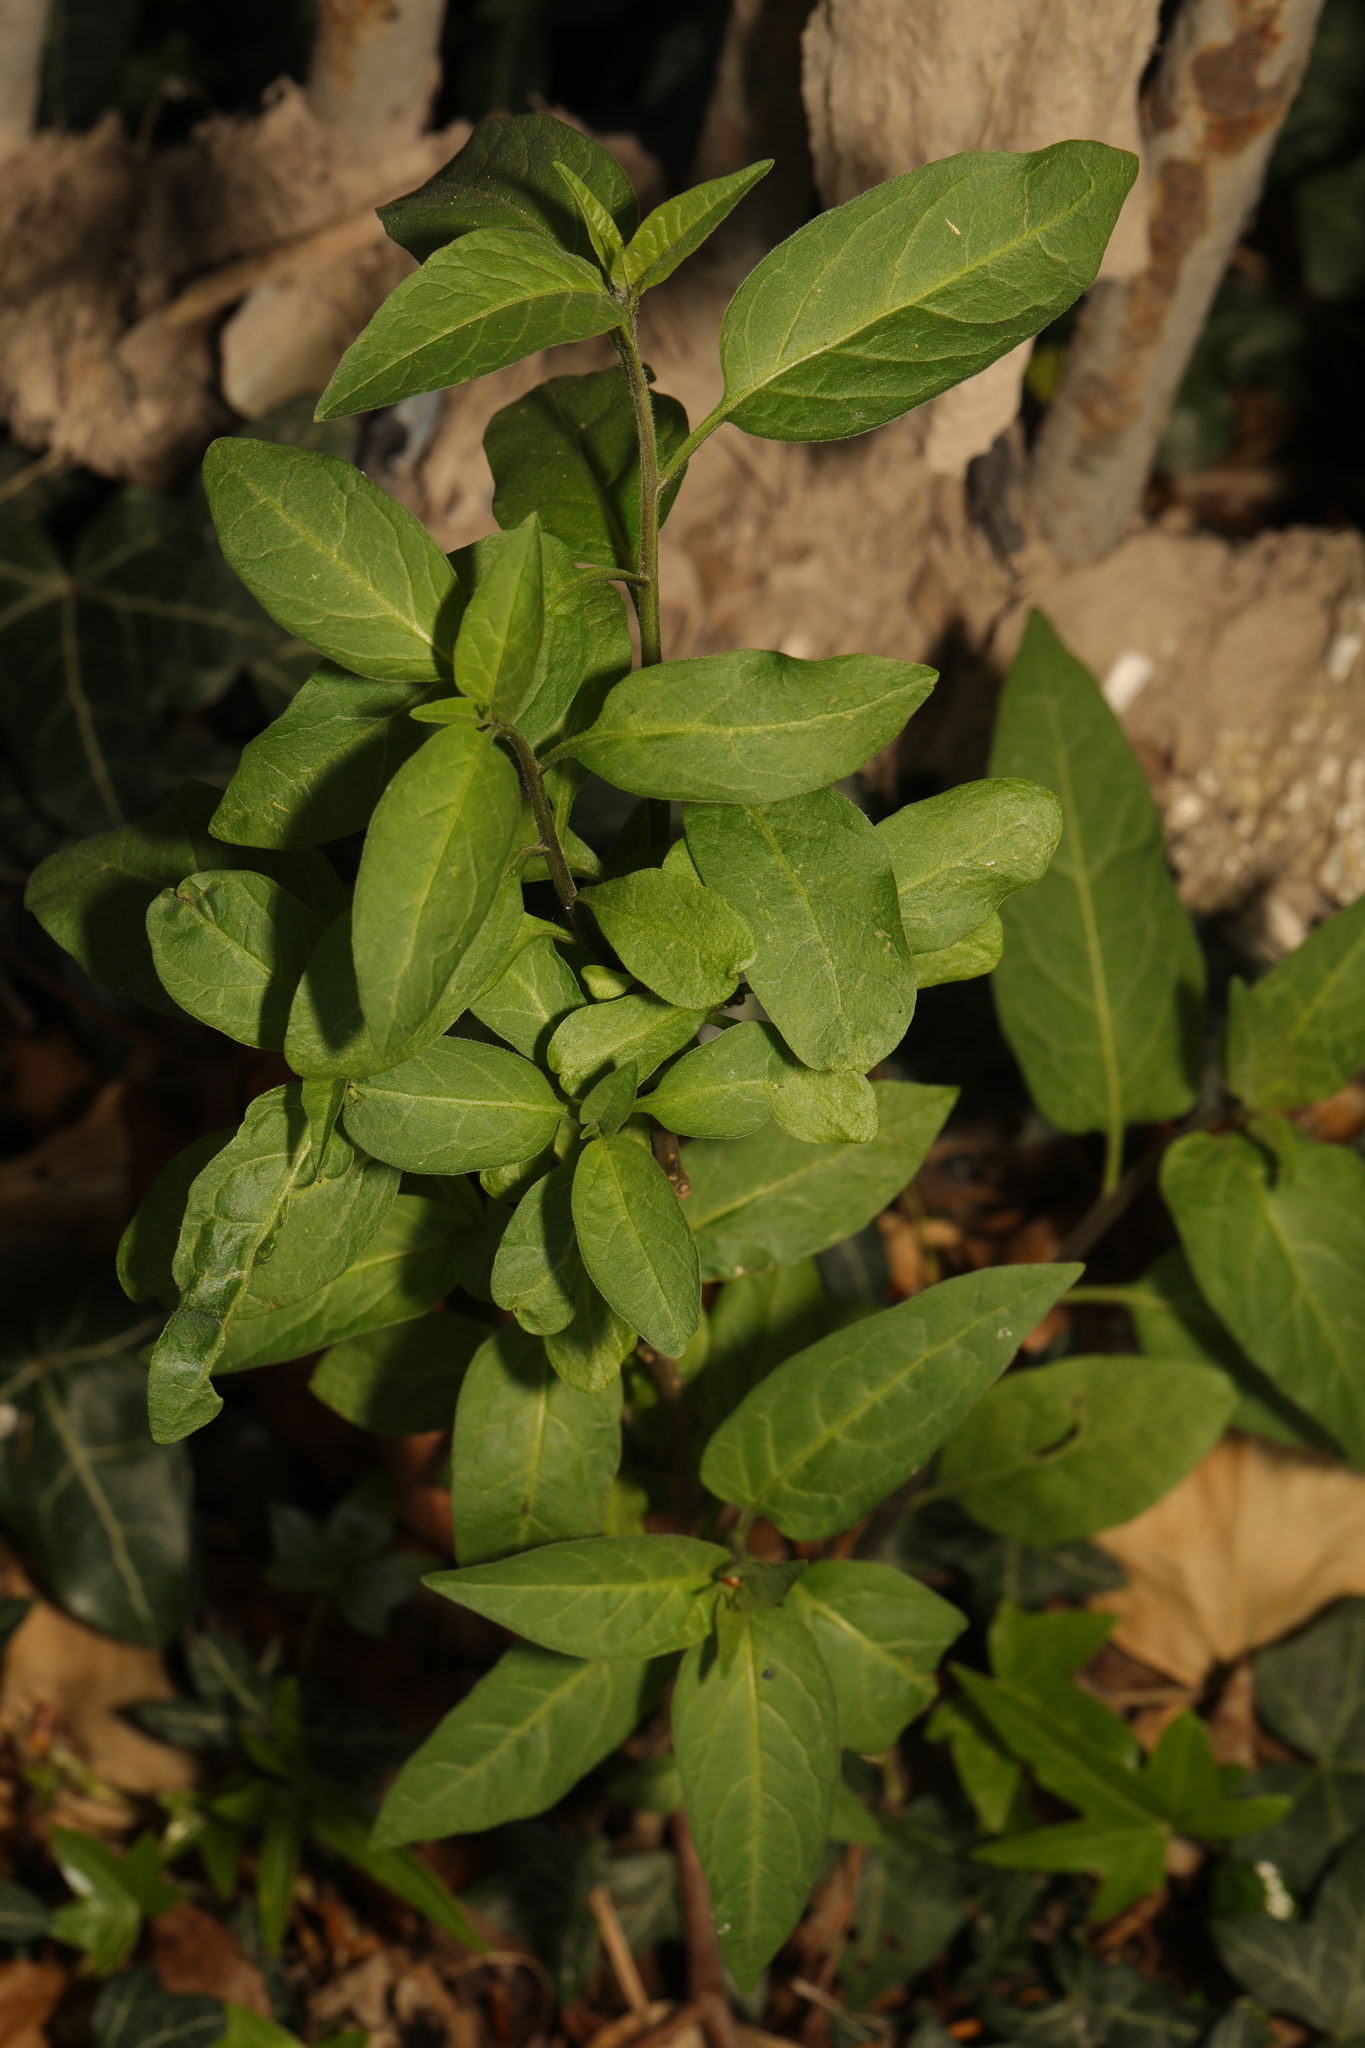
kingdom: Plantae
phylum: Tracheophyta
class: Magnoliopsida
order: Solanales
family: Solanaceae
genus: Solanum
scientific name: Solanum dulcamara
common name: Climbing nightshade
